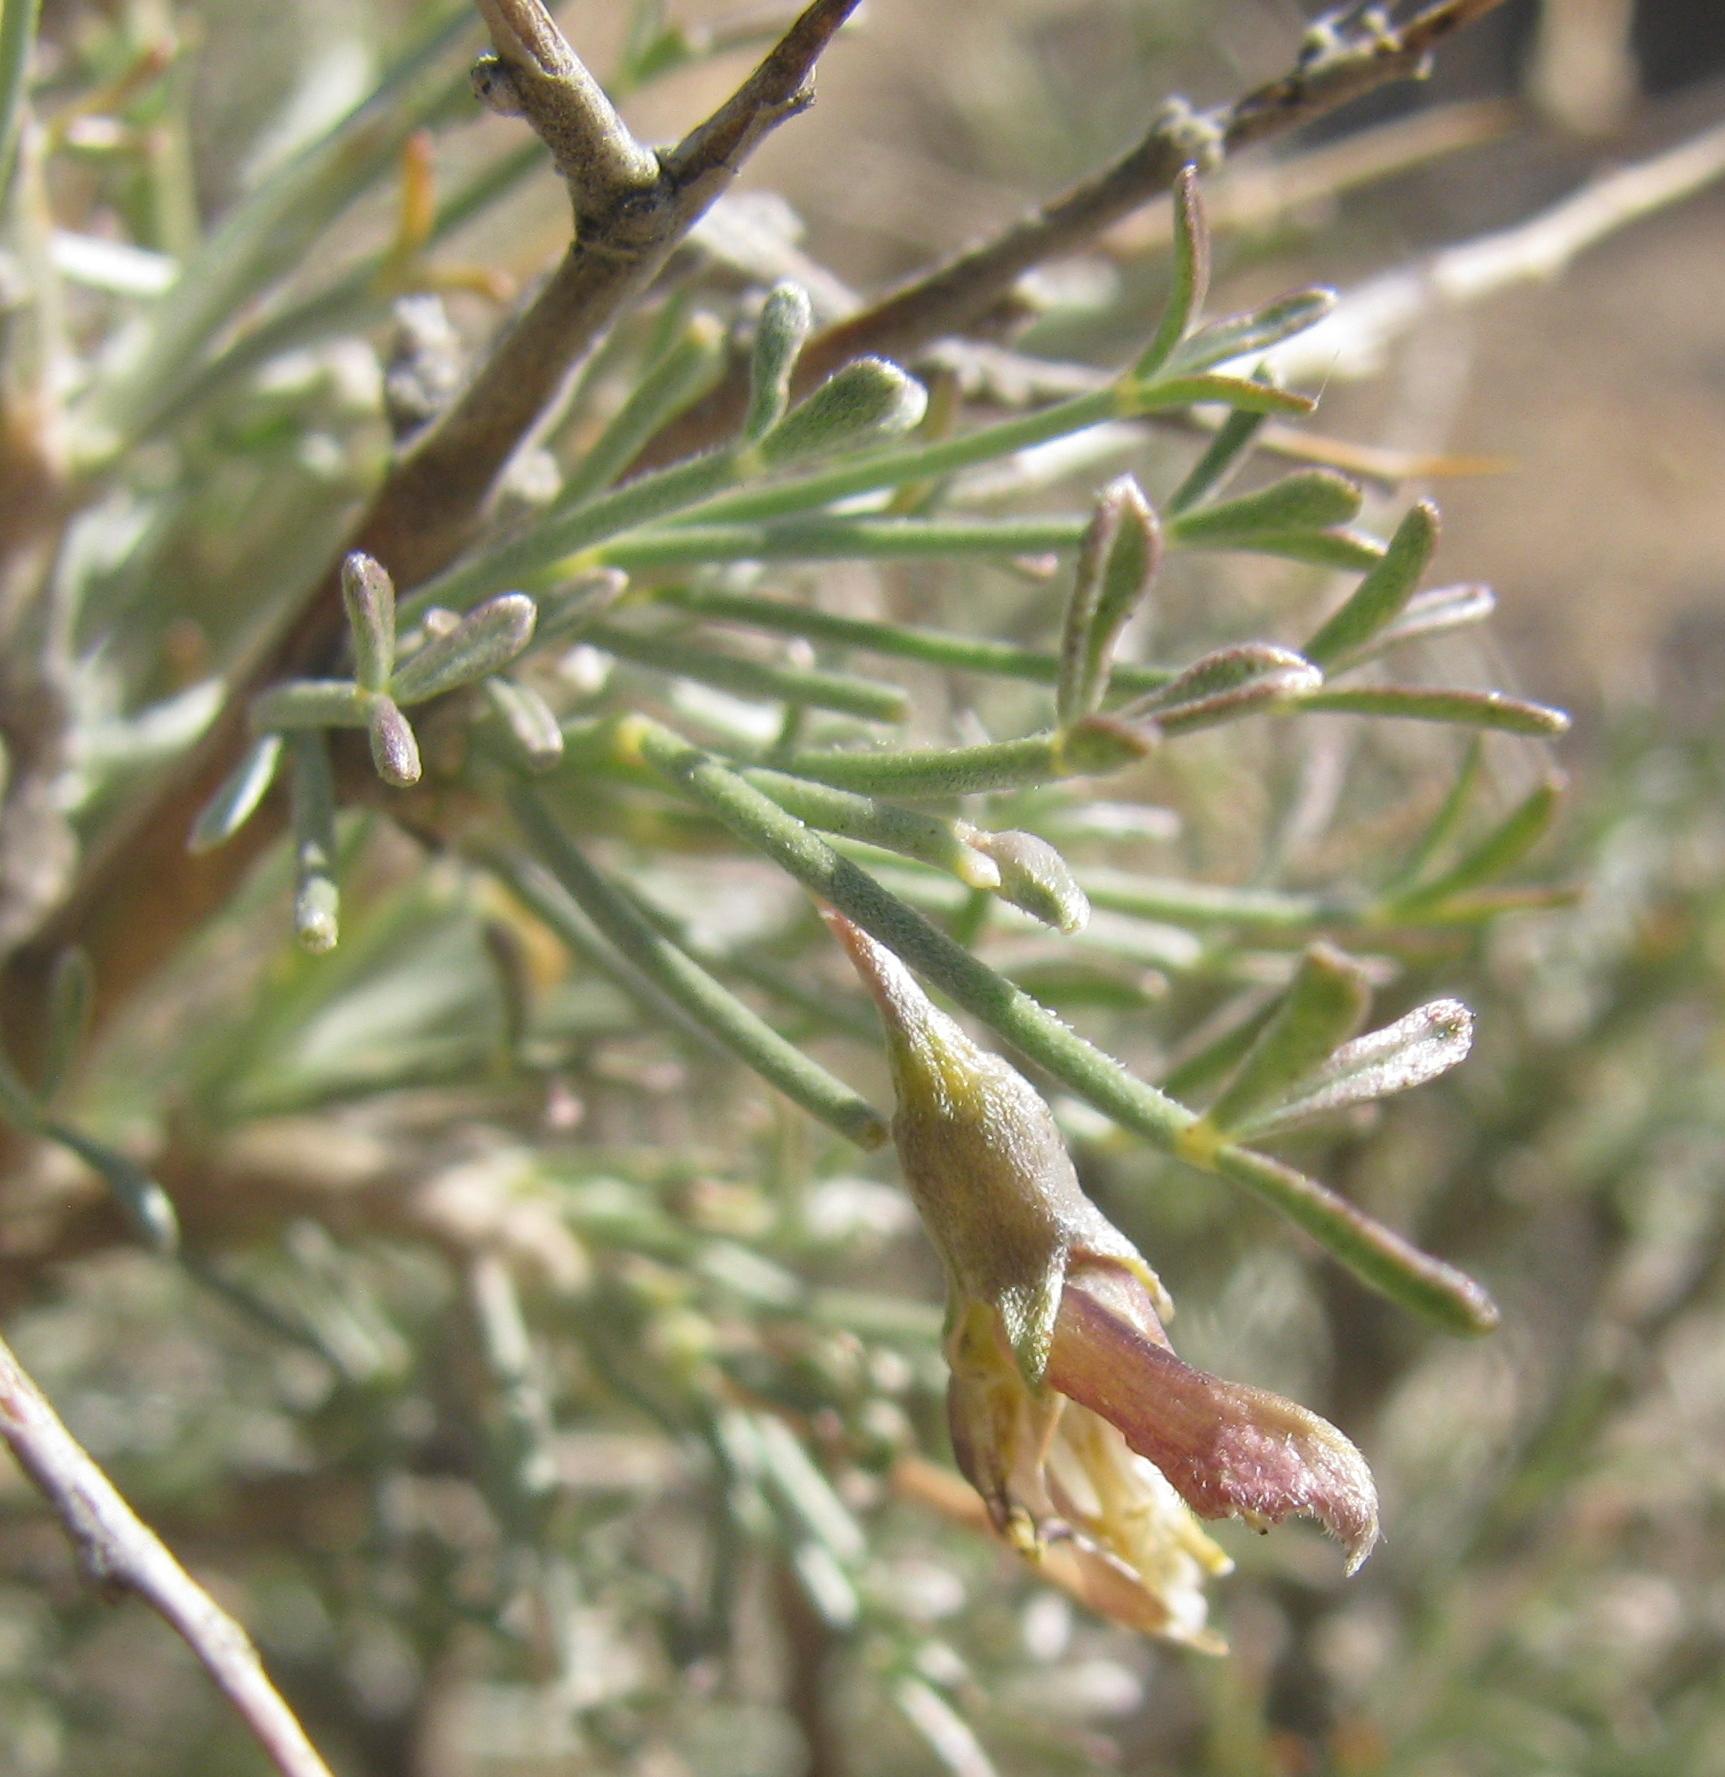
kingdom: Plantae
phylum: Tracheophyta
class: Magnoliopsida
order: Fabales
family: Fabaceae
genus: Calobota
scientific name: Calobota spinescens
